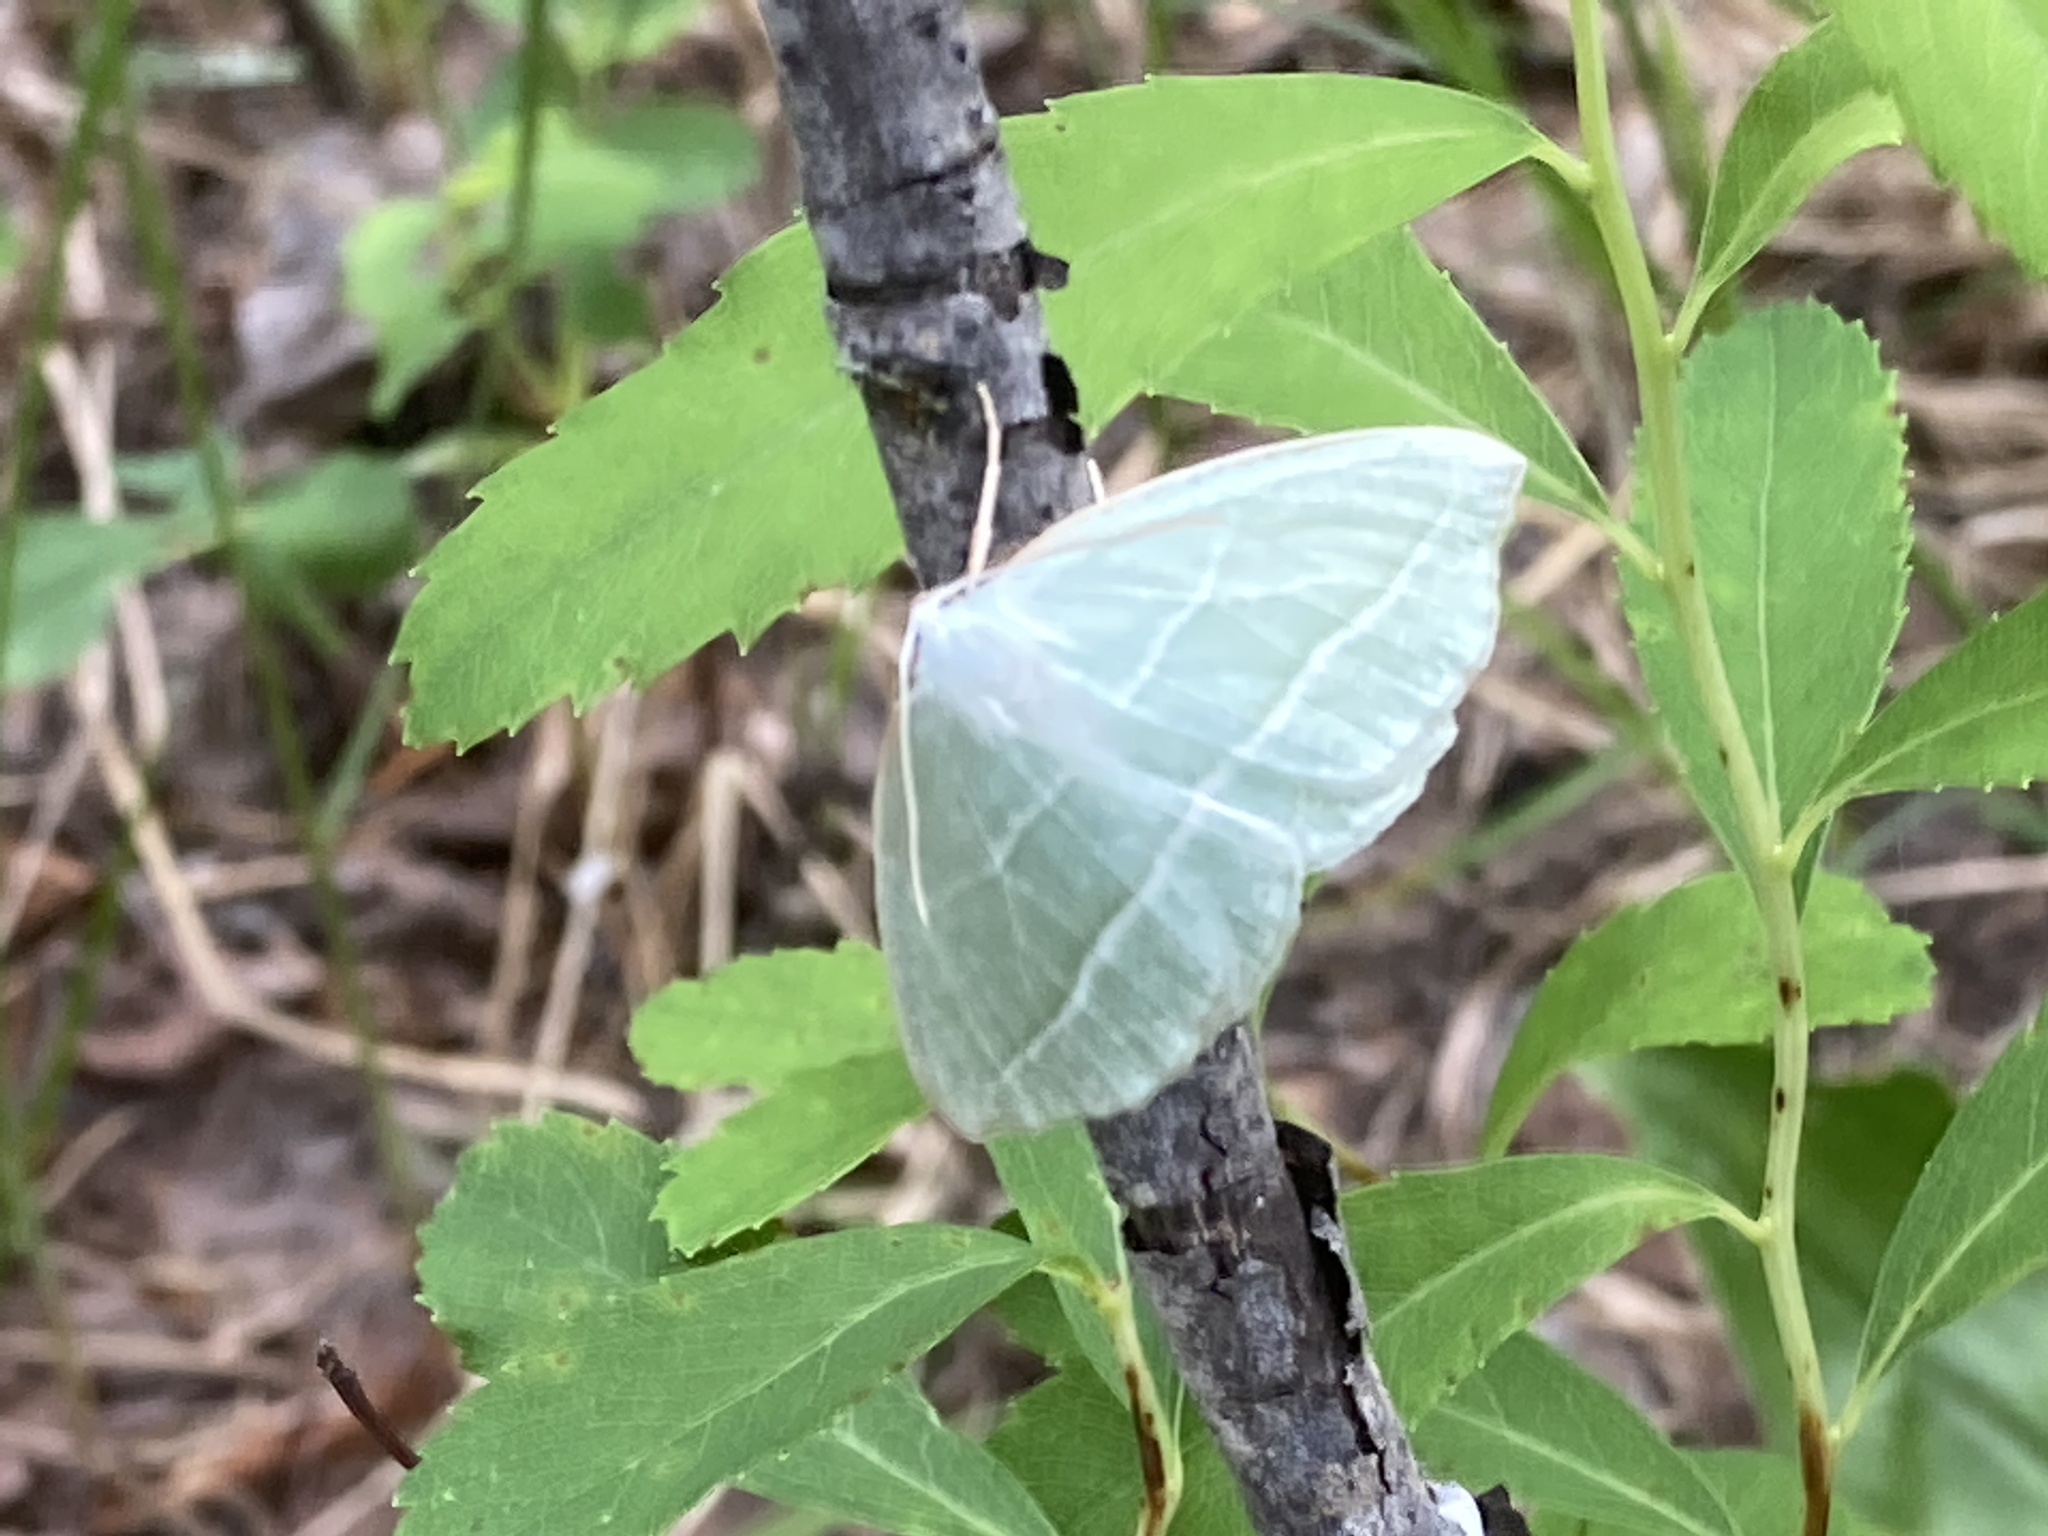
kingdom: Animalia
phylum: Arthropoda
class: Insecta
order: Lepidoptera
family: Geometridae
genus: Campaea
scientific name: Campaea perlata
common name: Fringed looper
